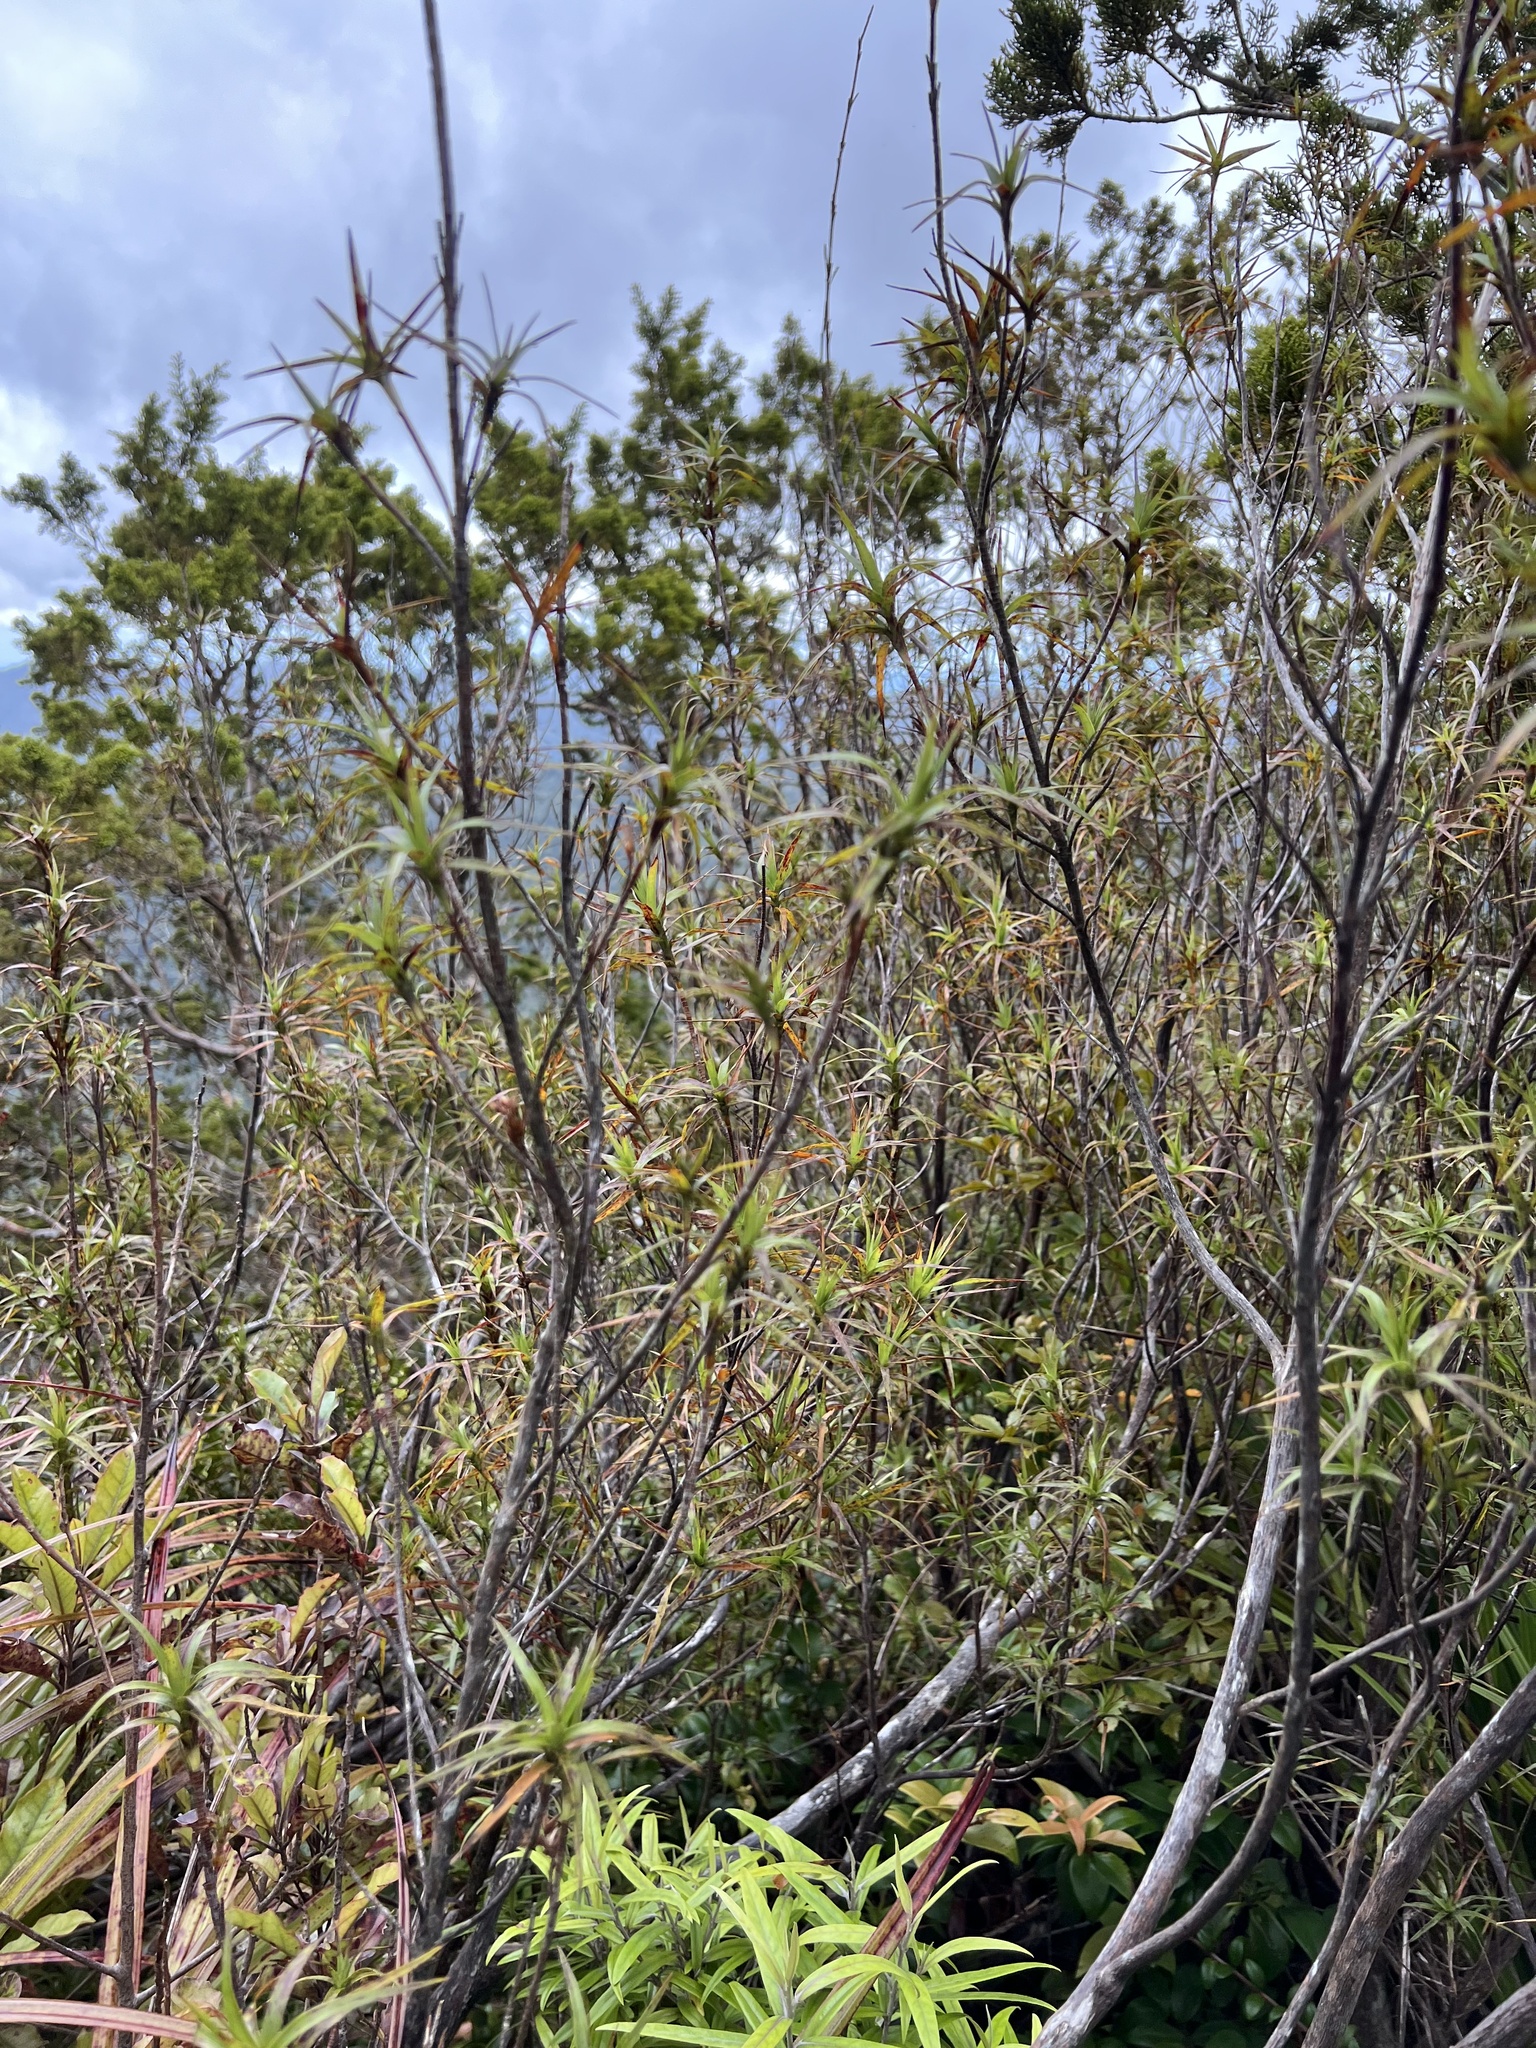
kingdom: Plantae
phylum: Tracheophyta
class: Magnoliopsida
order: Ericales
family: Ericaceae
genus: Dracophyllum
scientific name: Dracophyllum patens
